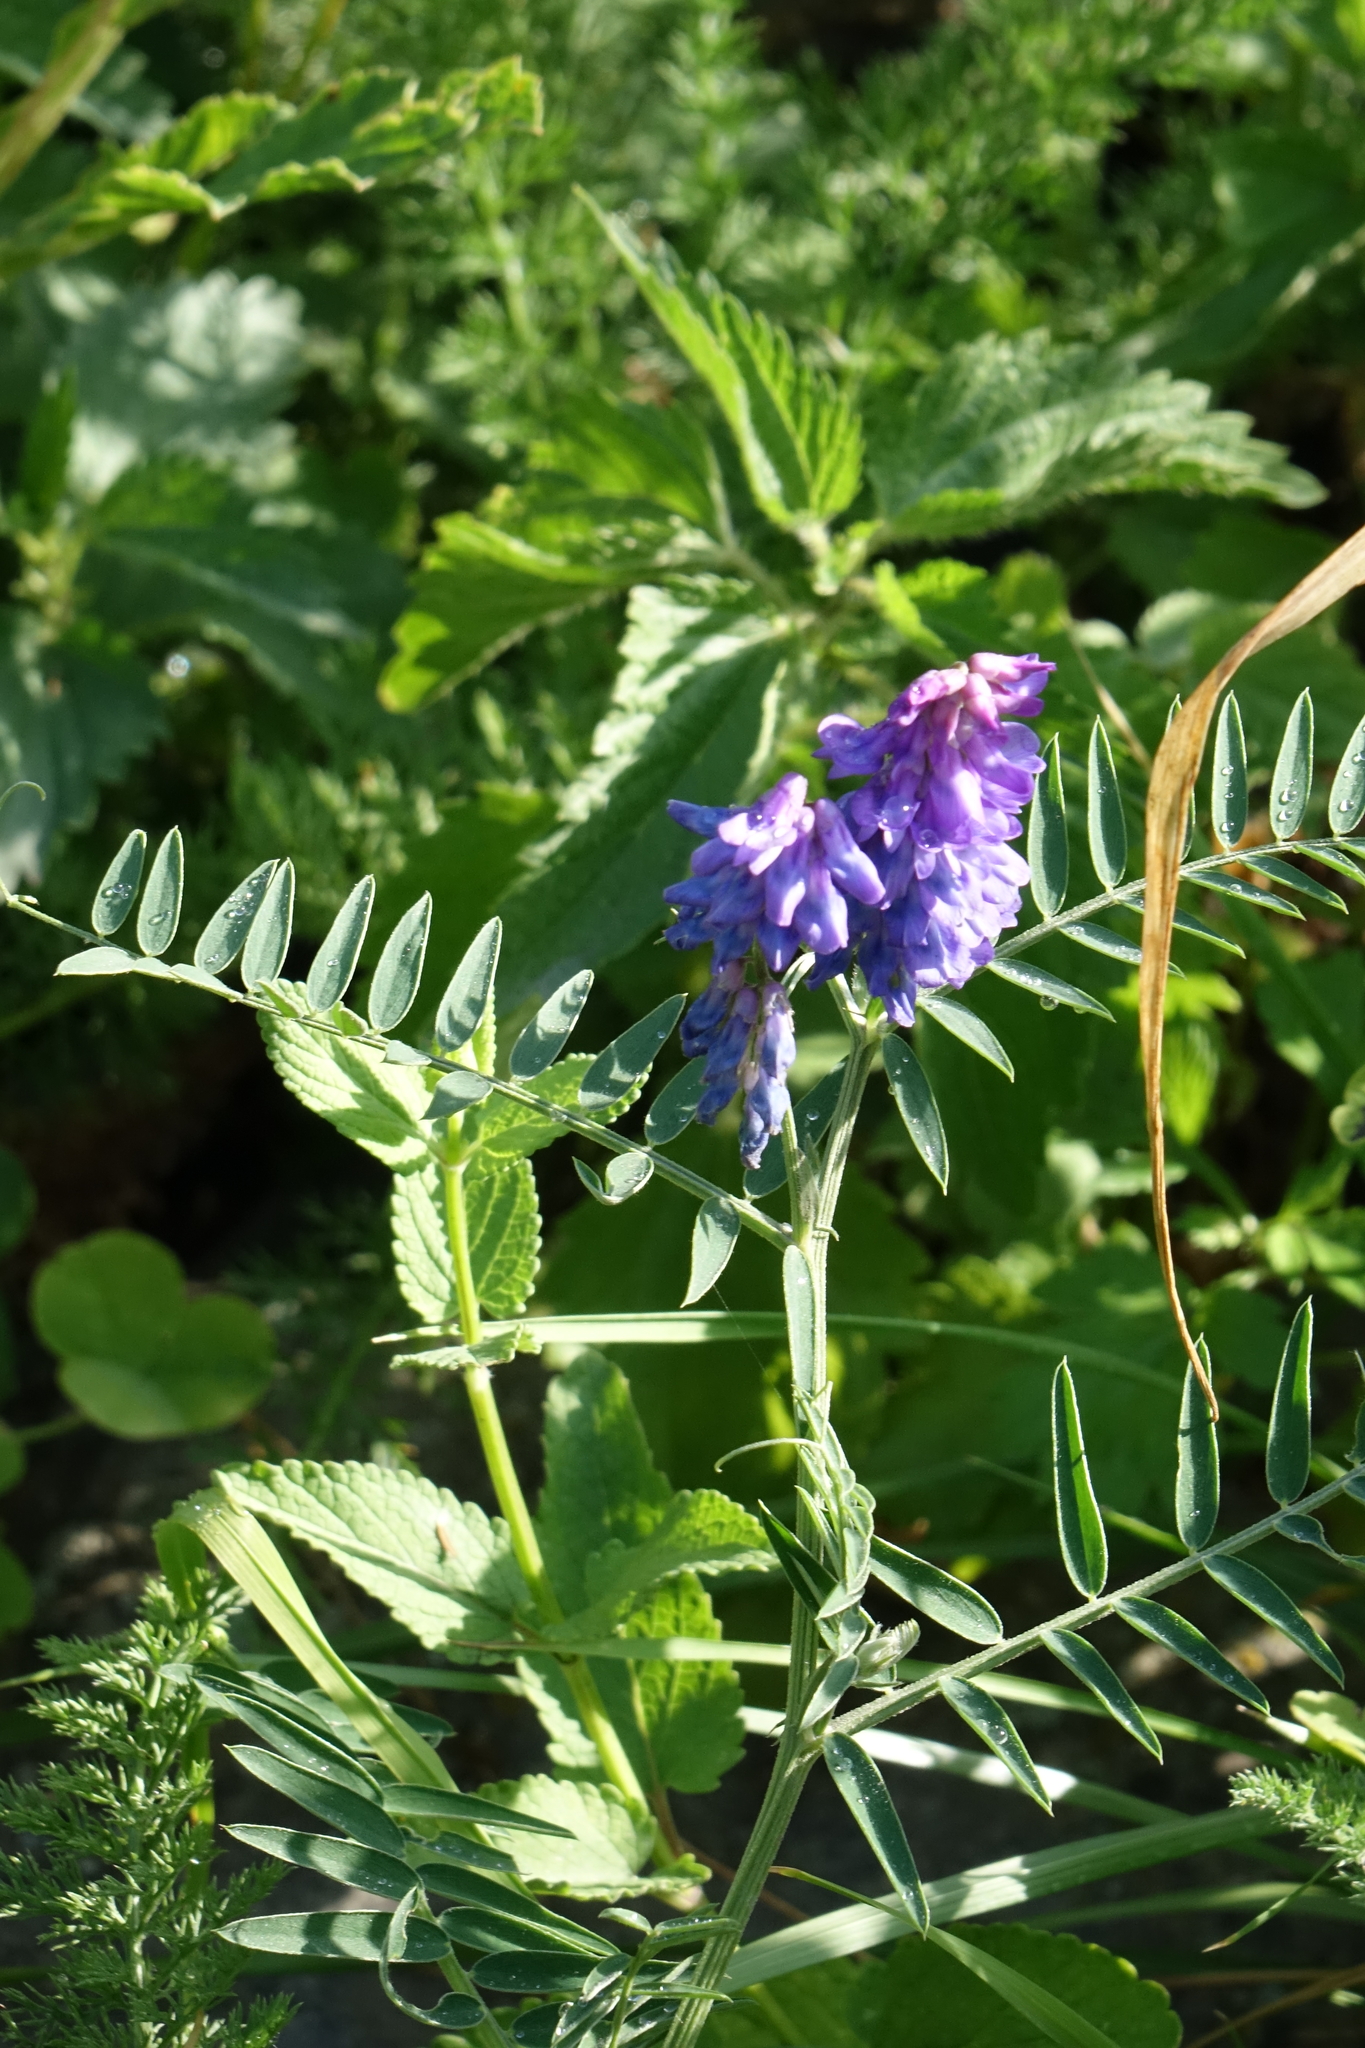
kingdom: Plantae
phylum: Tracheophyta
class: Magnoliopsida
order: Fabales
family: Fabaceae
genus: Vicia
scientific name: Vicia cracca
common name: Bird vetch
